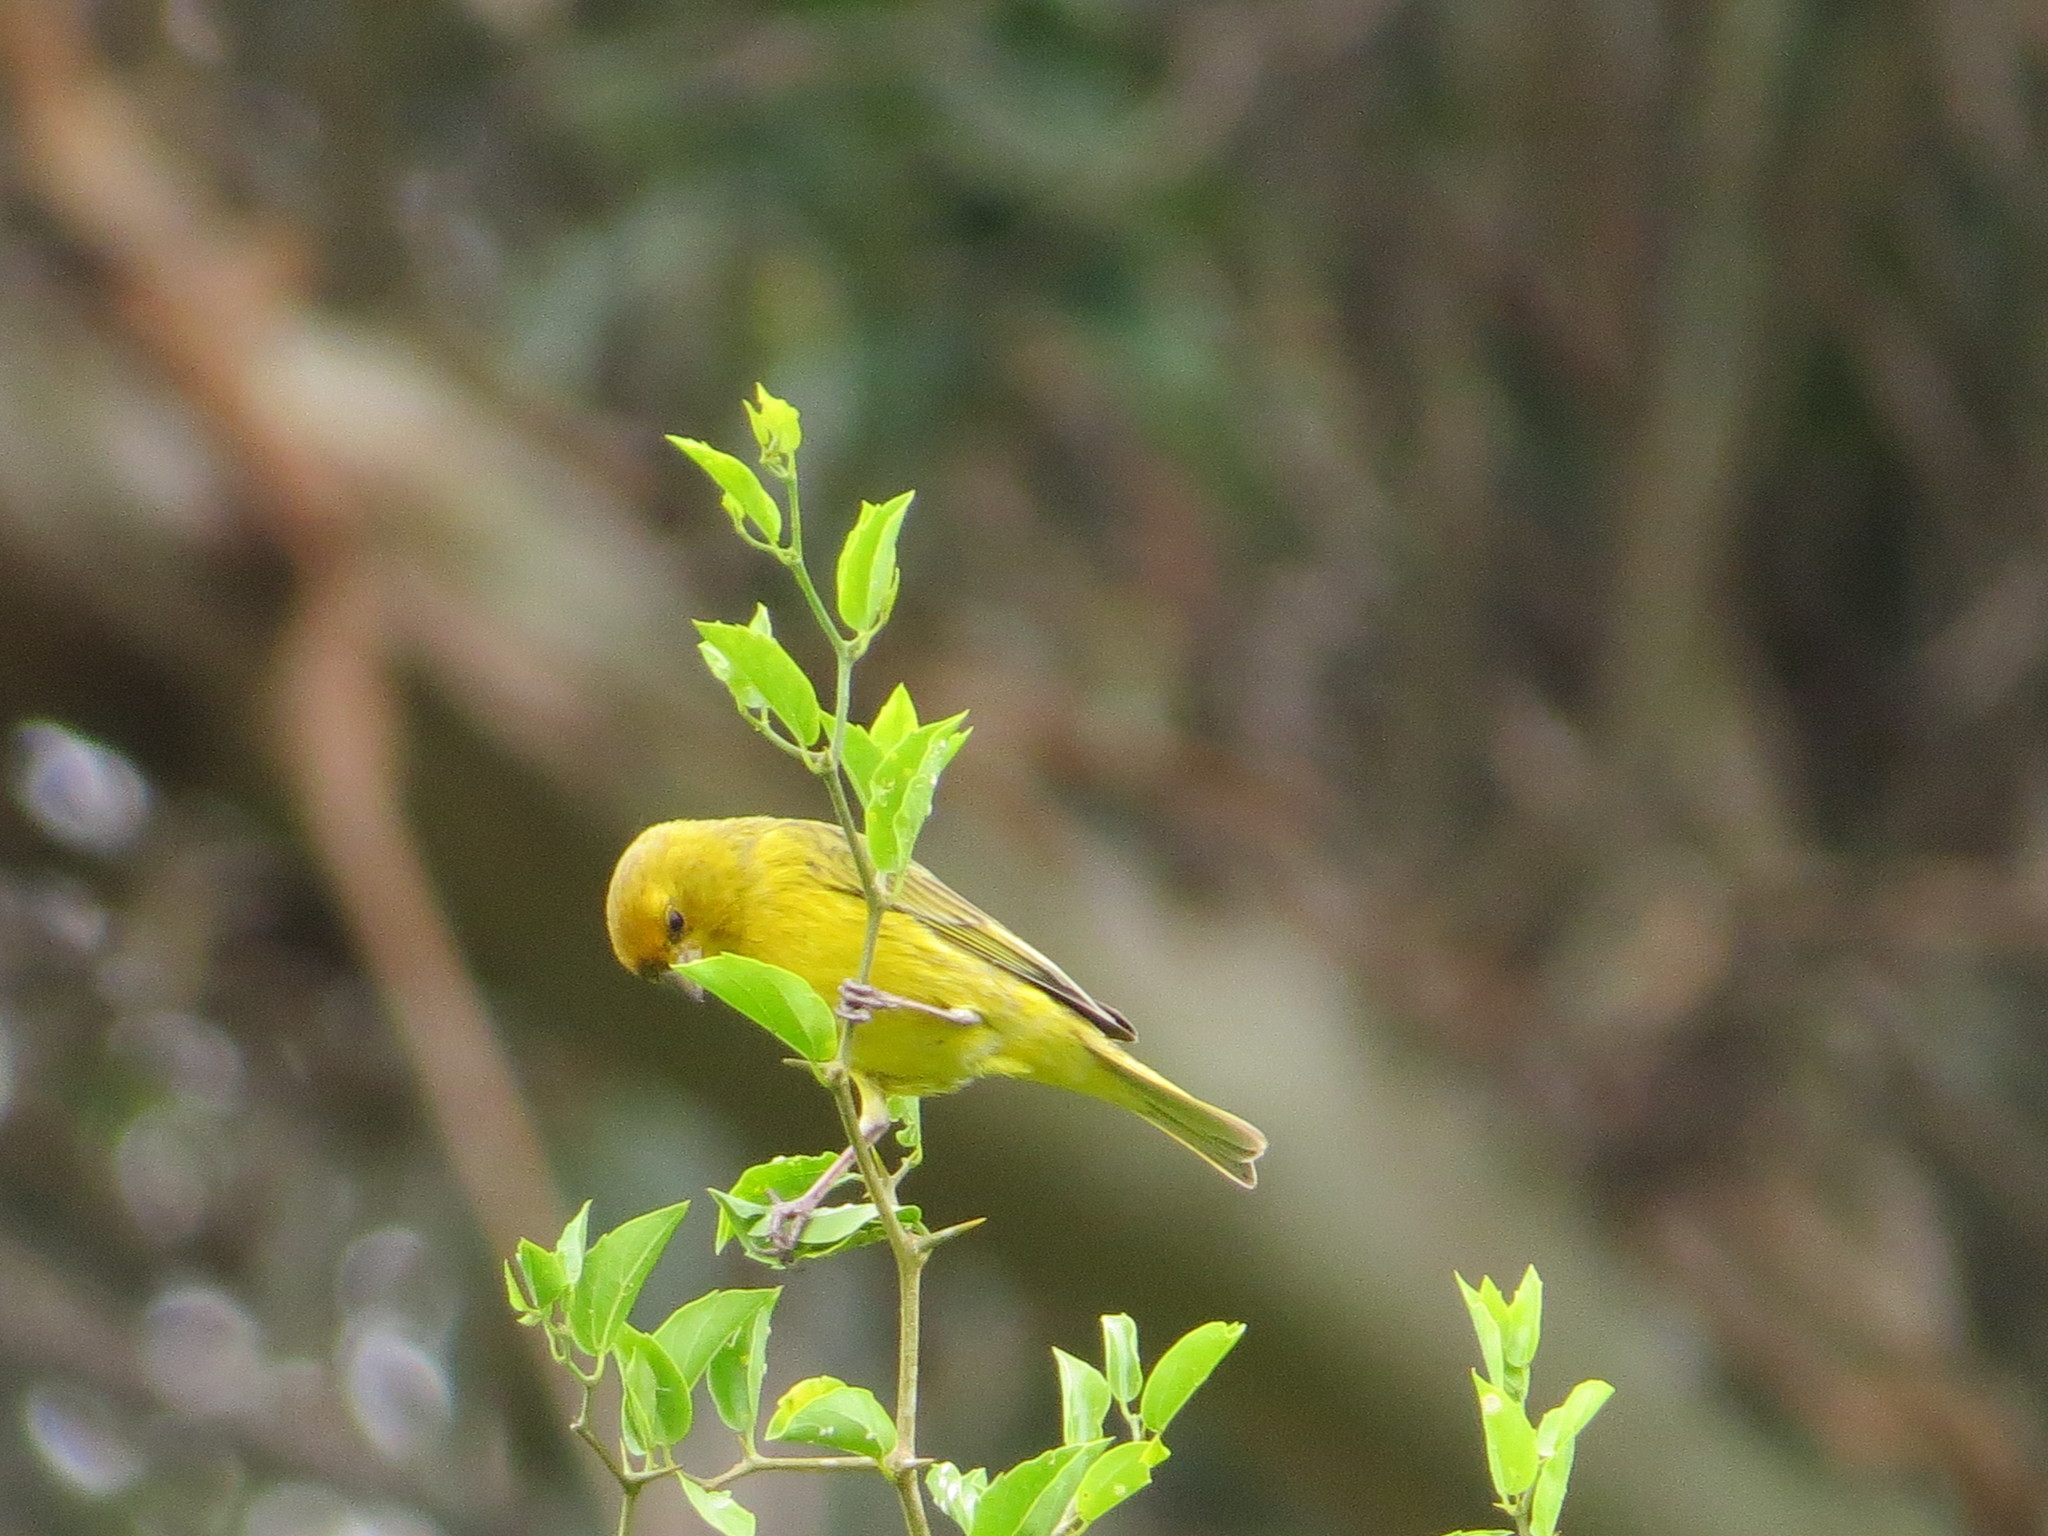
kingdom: Animalia
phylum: Chordata
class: Aves
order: Passeriformes
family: Thraupidae
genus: Sicalis
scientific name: Sicalis flaveola
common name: Saffron finch
